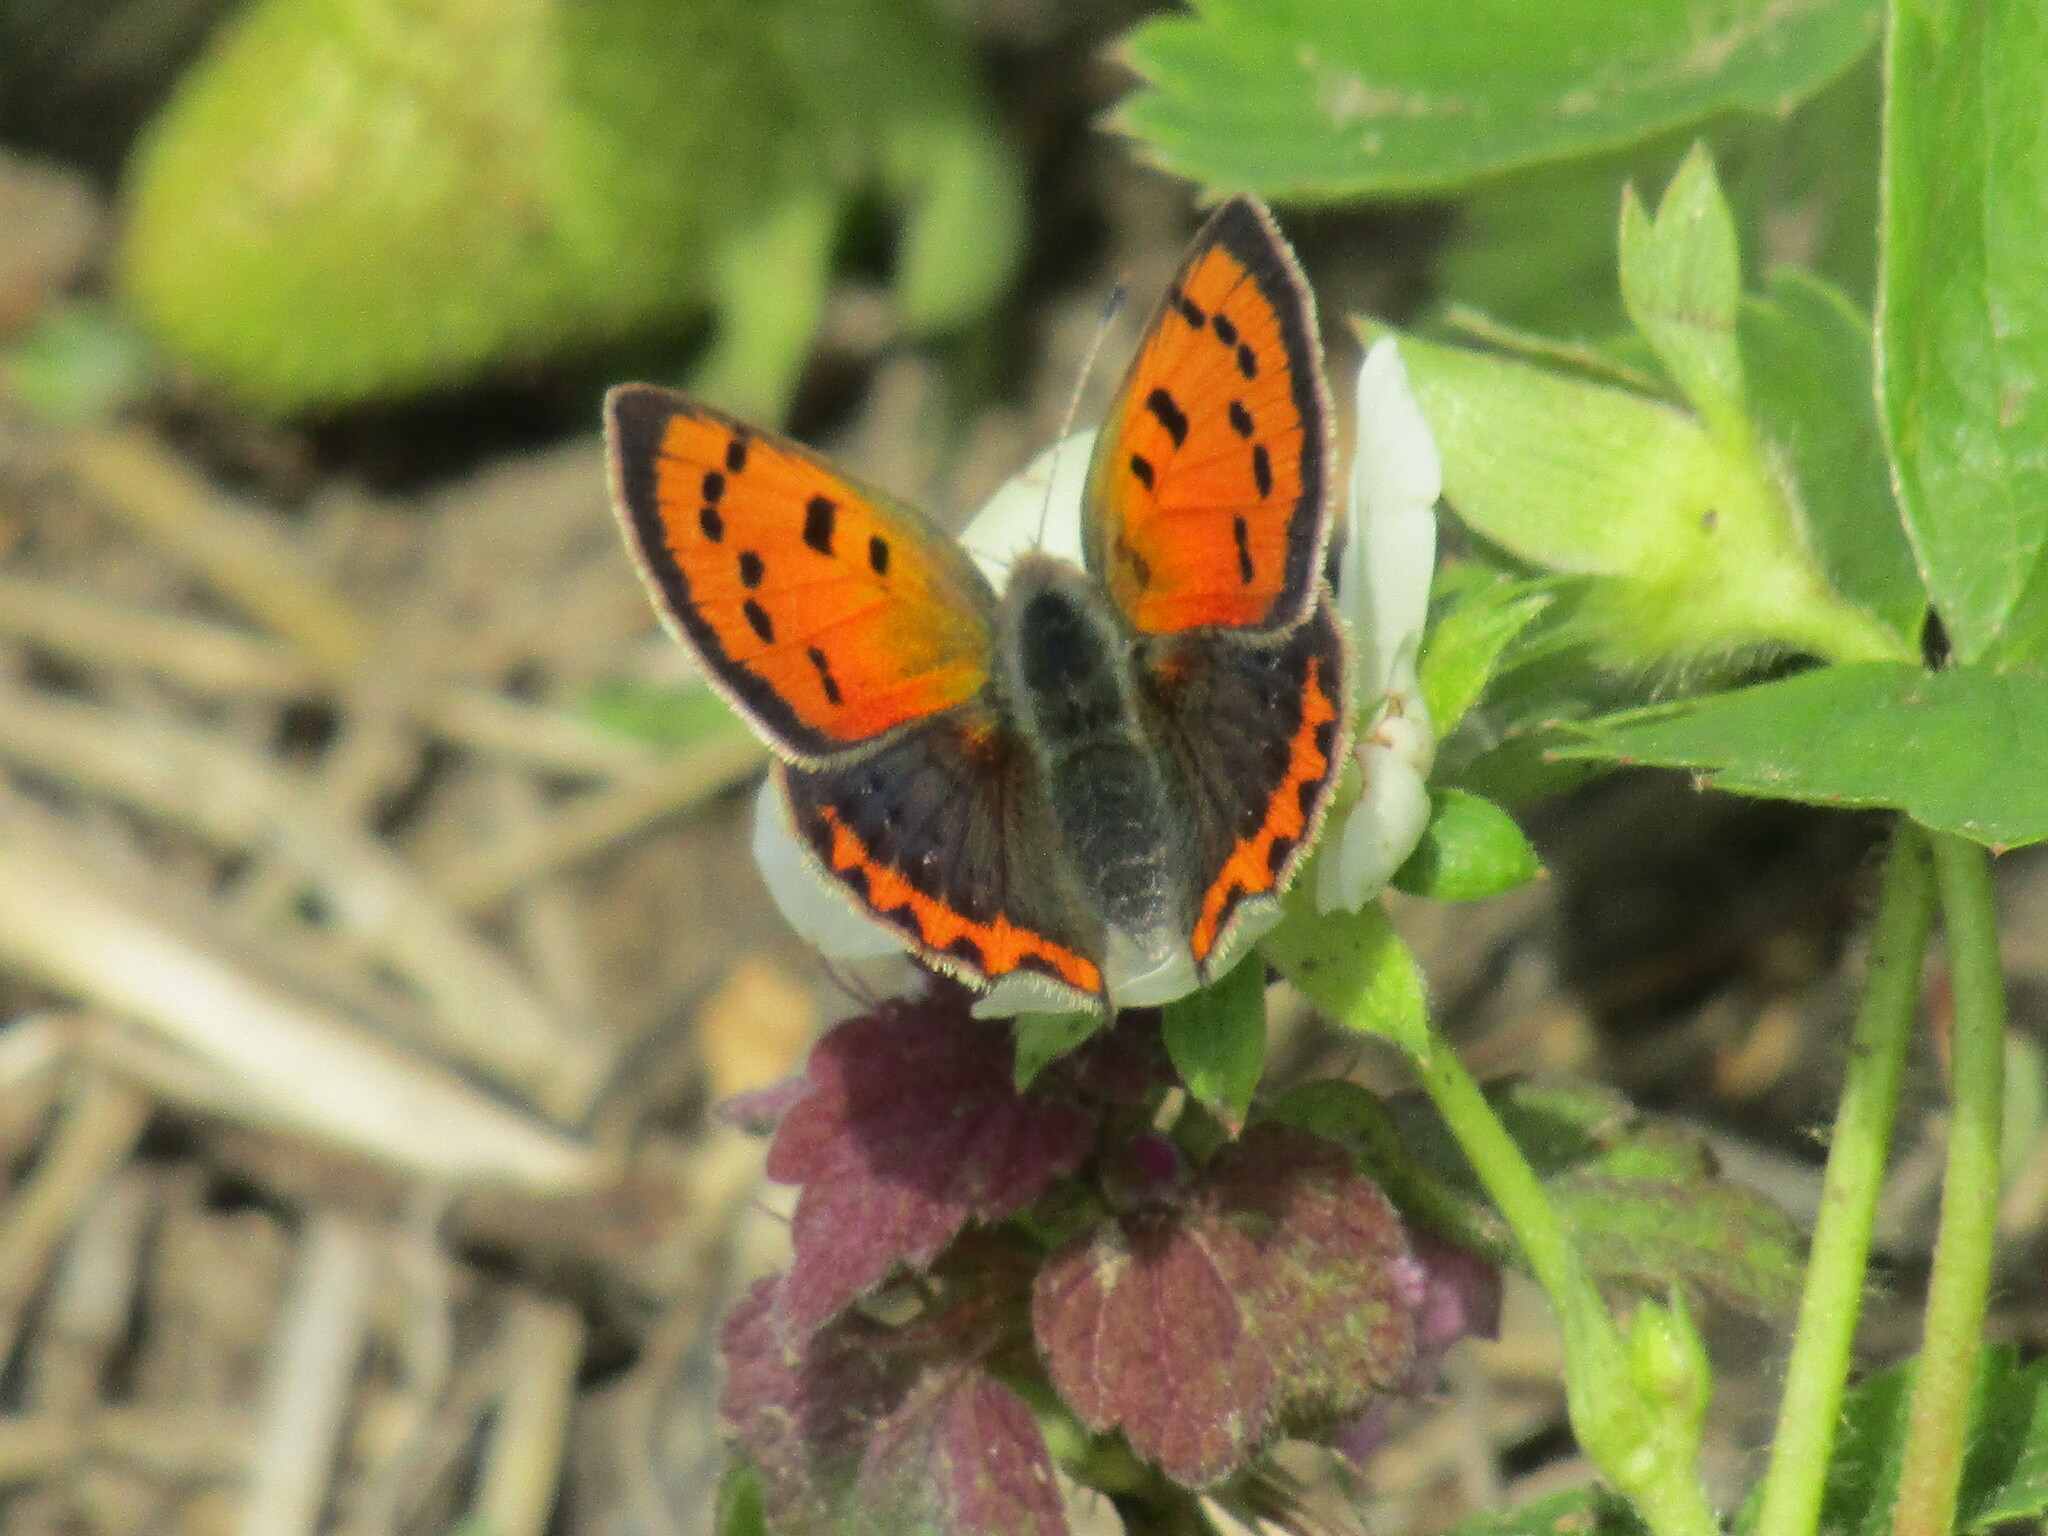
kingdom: Animalia
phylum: Arthropoda
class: Insecta
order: Lepidoptera
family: Lycaenidae
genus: Lycaena
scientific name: Lycaena phlaeas
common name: Small copper
